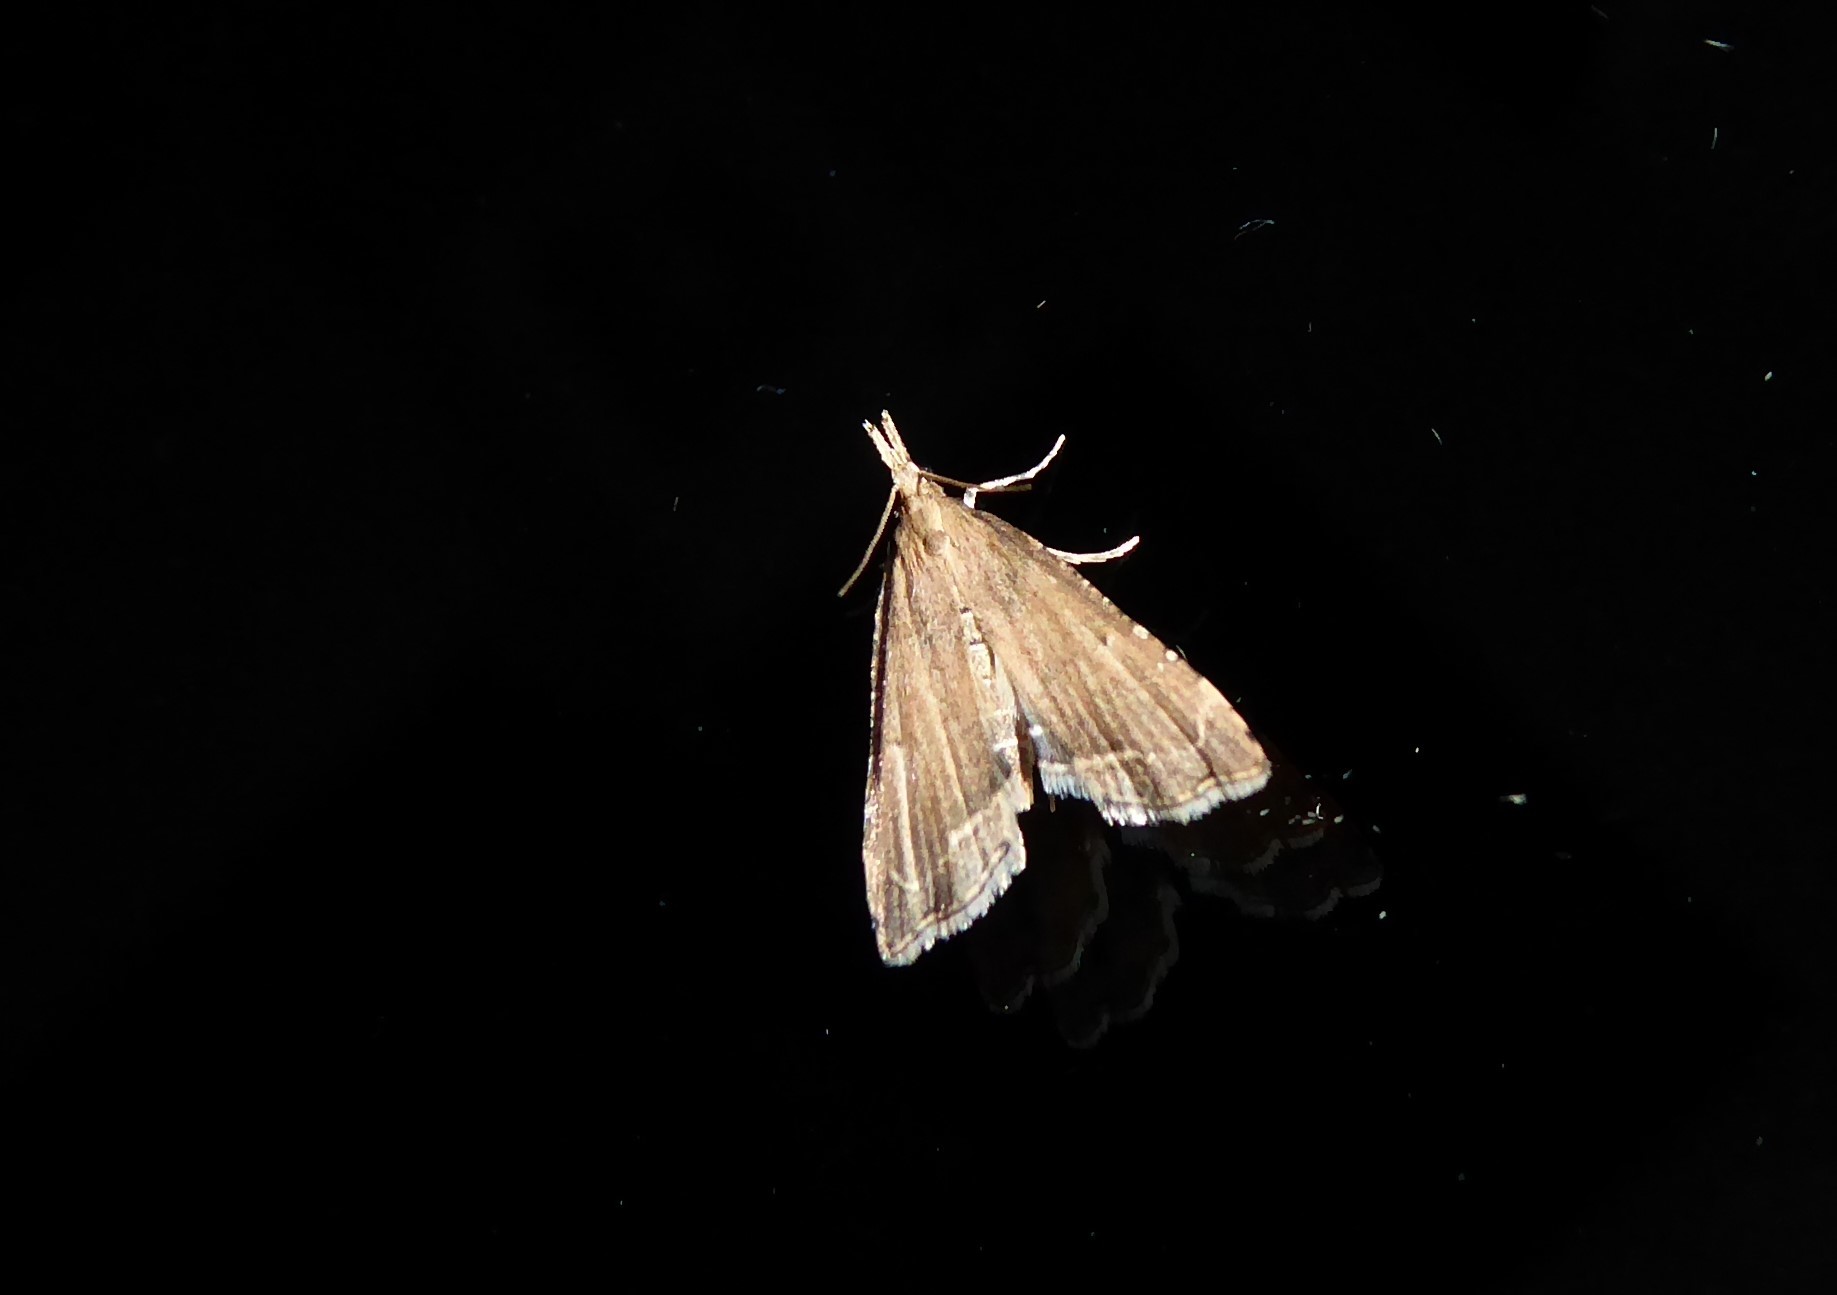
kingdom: Animalia
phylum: Arthropoda
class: Insecta
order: Lepidoptera
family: Crambidae
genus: Diplopseustis
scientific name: Diplopseustis perieresalis
